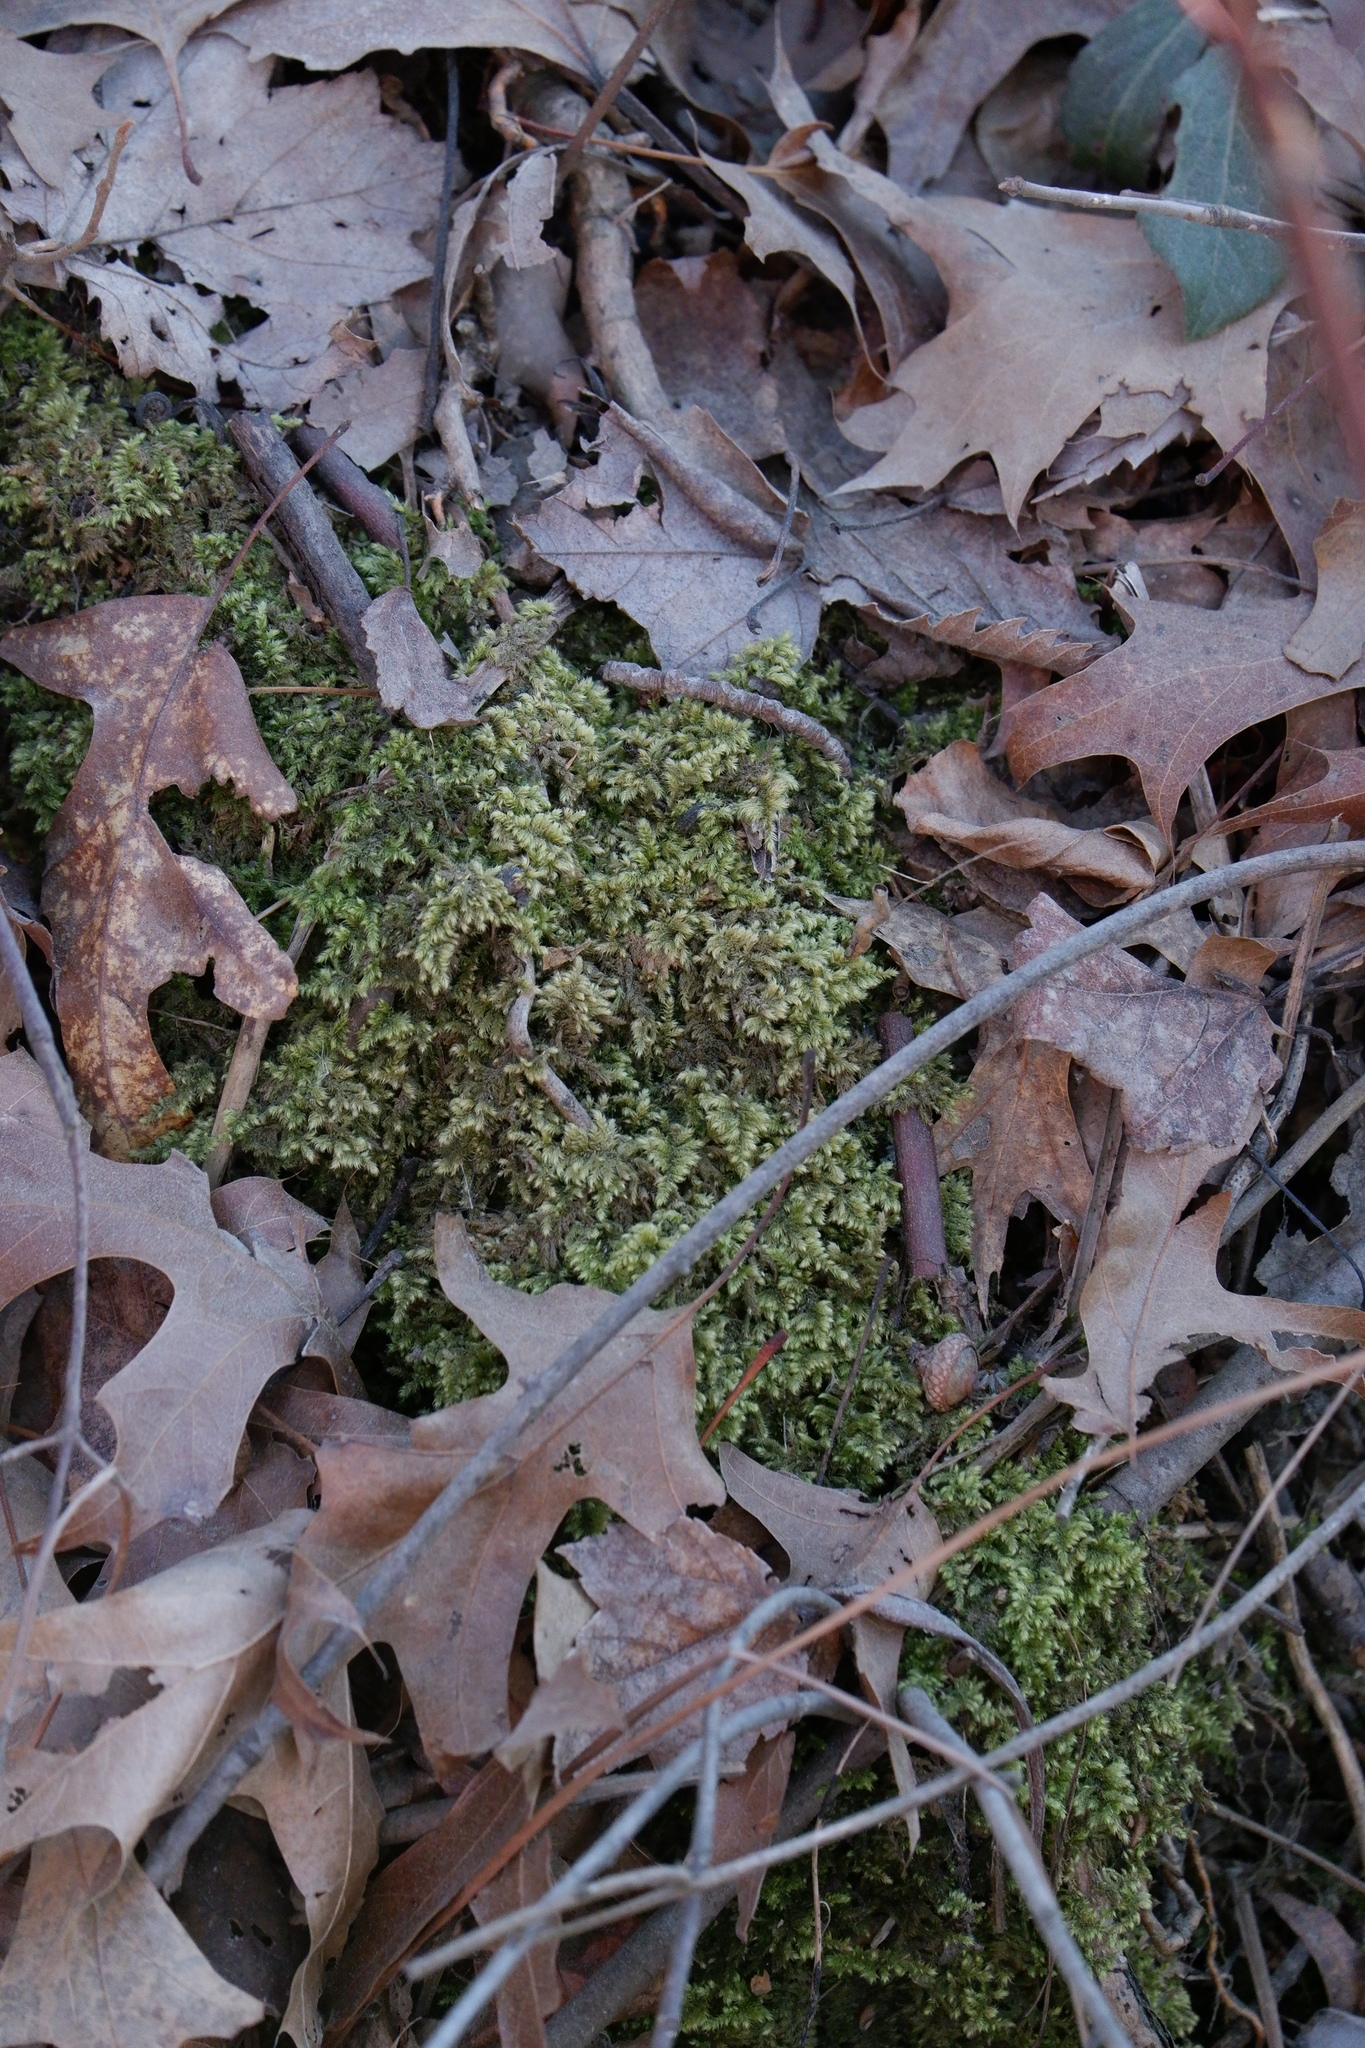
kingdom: Plantae
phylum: Bryophyta
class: Bryopsida
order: Hypnales
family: Callicladiaceae
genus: Callicladium
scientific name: Callicladium imponens
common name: Brocade moss
